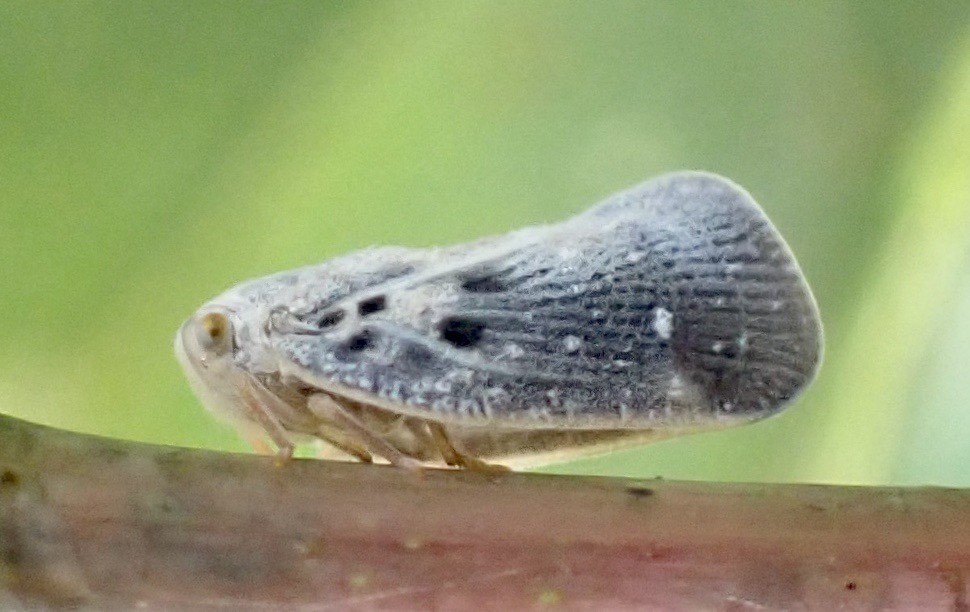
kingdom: Animalia
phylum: Arthropoda
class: Insecta
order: Hemiptera
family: Flatidae
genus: Metcalfa
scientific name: Metcalfa pruinosa
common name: Citrus flatid planthopper
